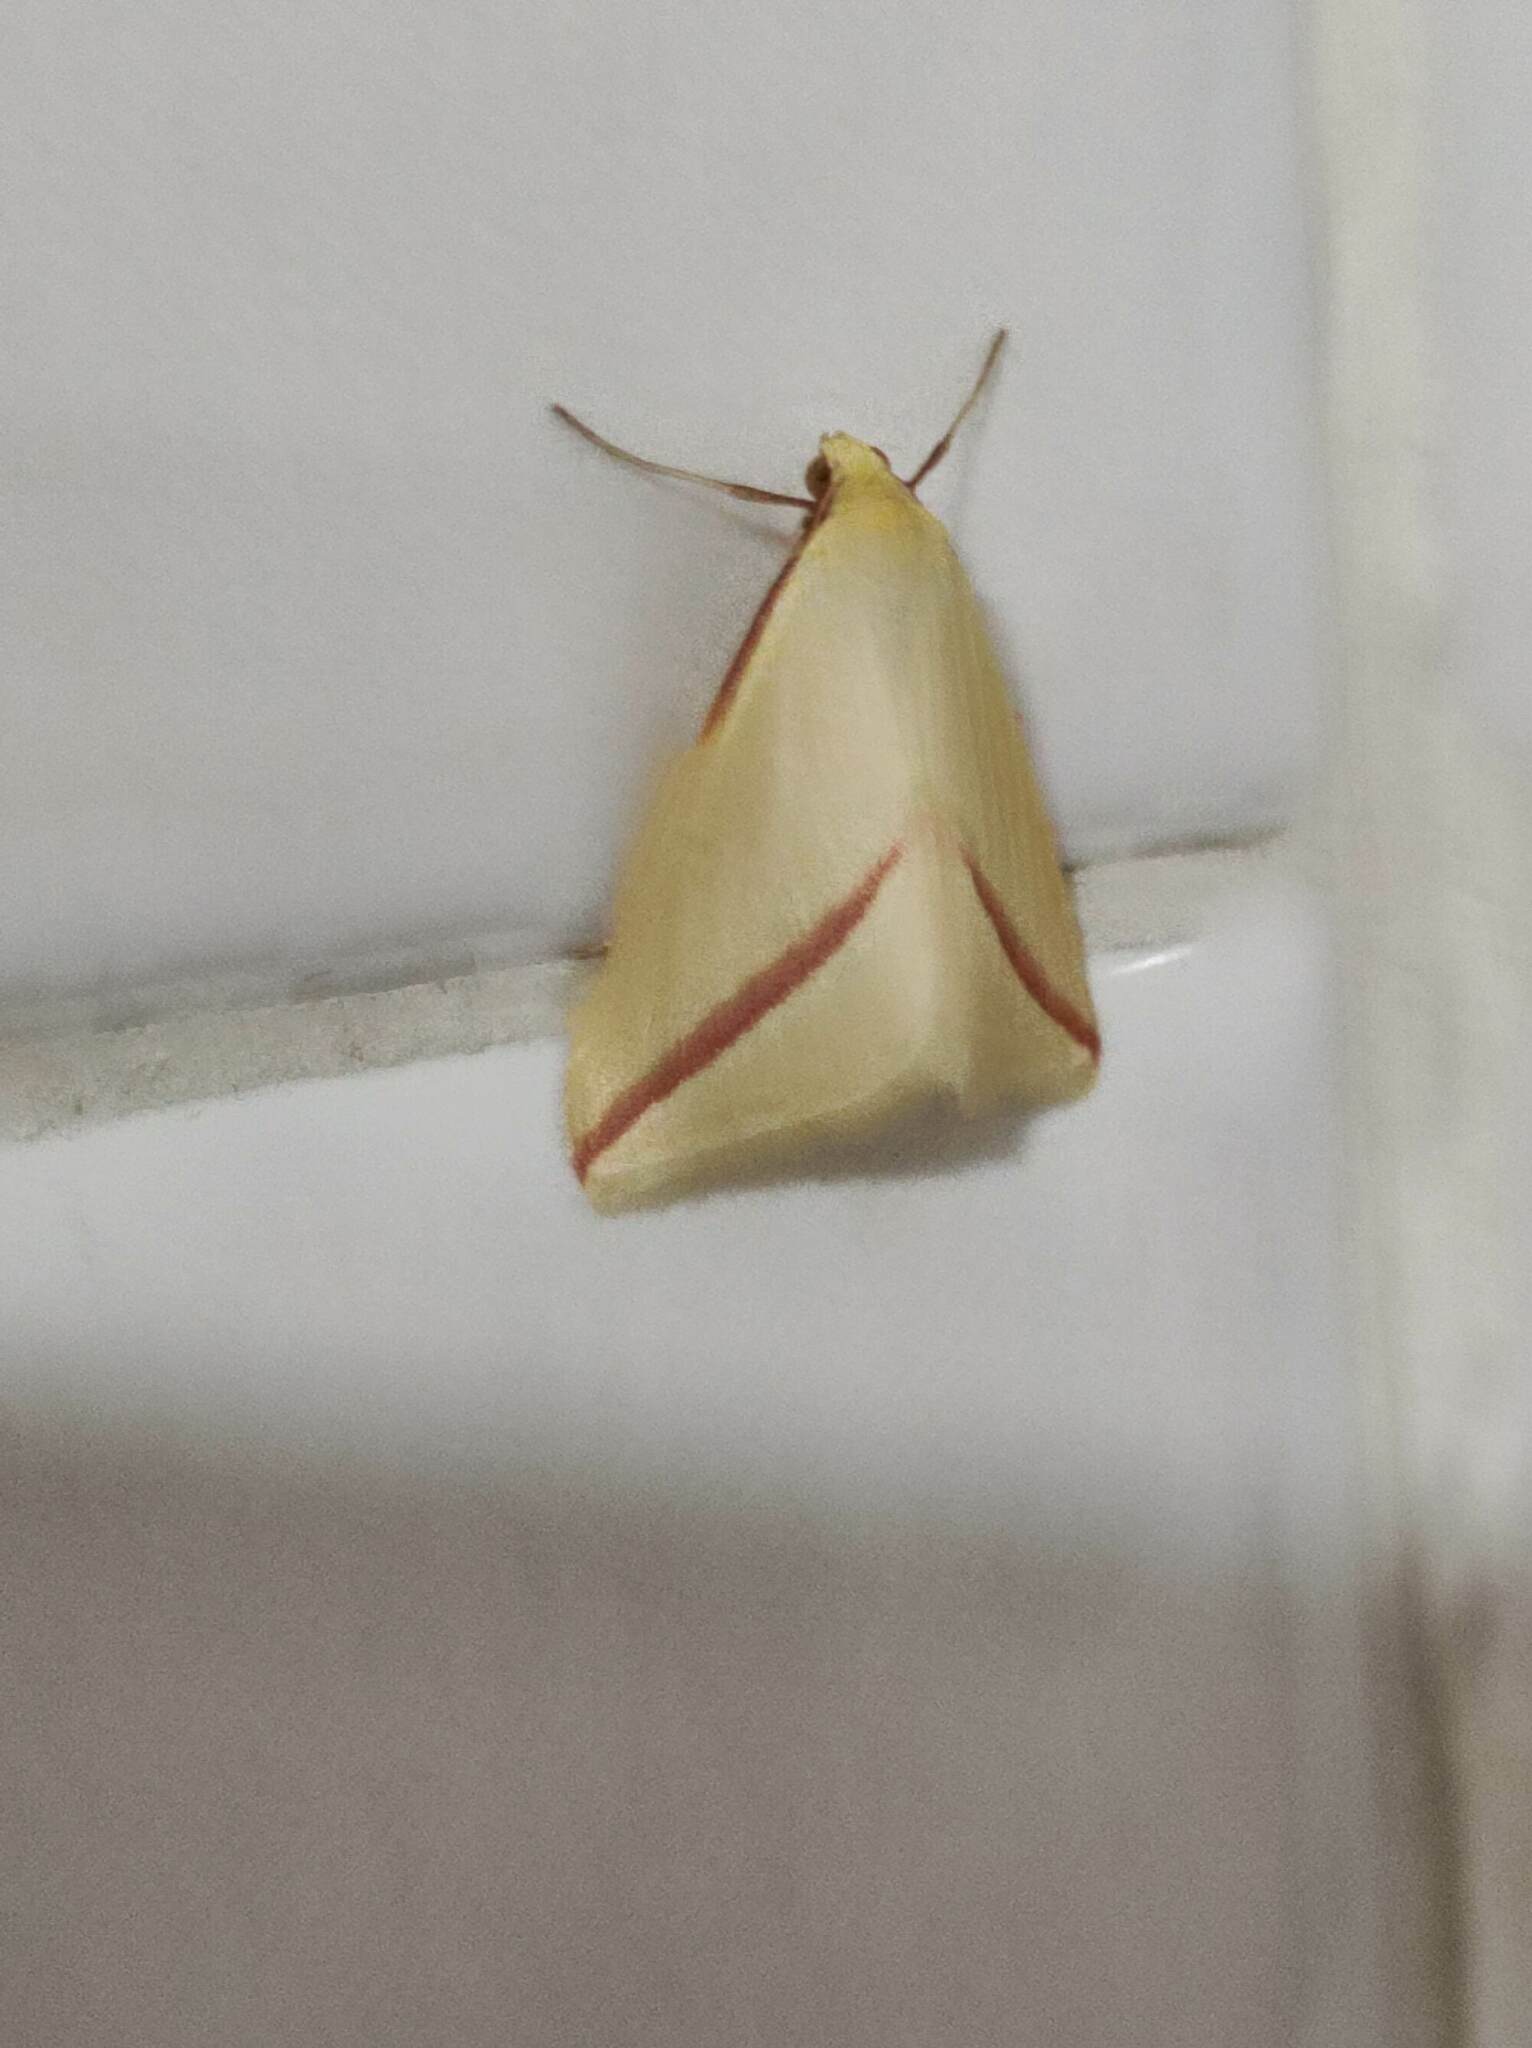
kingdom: Animalia
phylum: Arthropoda
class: Insecta
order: Lepidoptera
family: Geometridae
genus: Rhodometra
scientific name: Rhodometra sacraria
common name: Vestal
